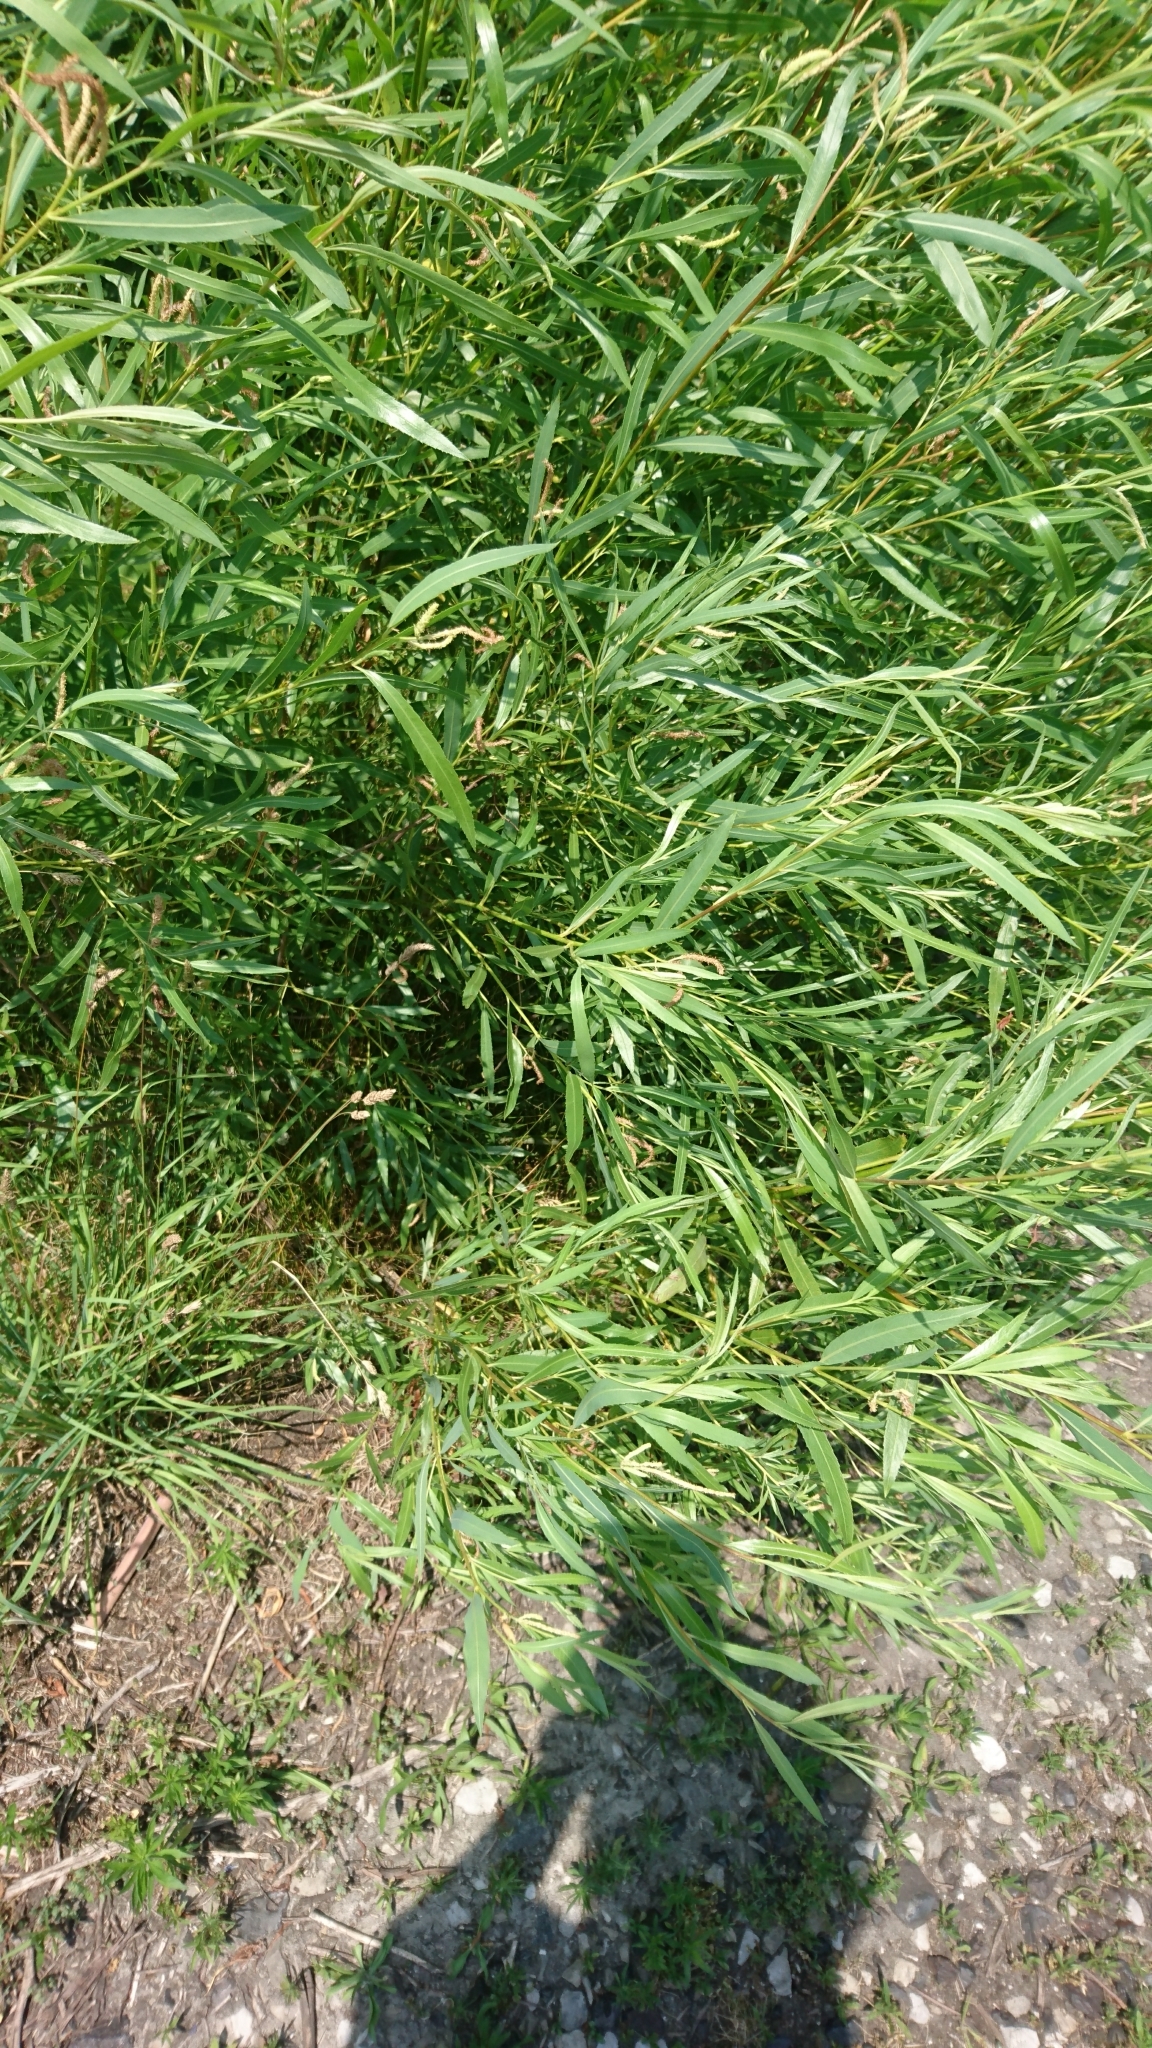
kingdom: Plantae
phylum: Tracheophyta
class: Magnoliopsida
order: Malpighiales
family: Salicaceae
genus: Salix
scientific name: Salix interior
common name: Sandbar willow
